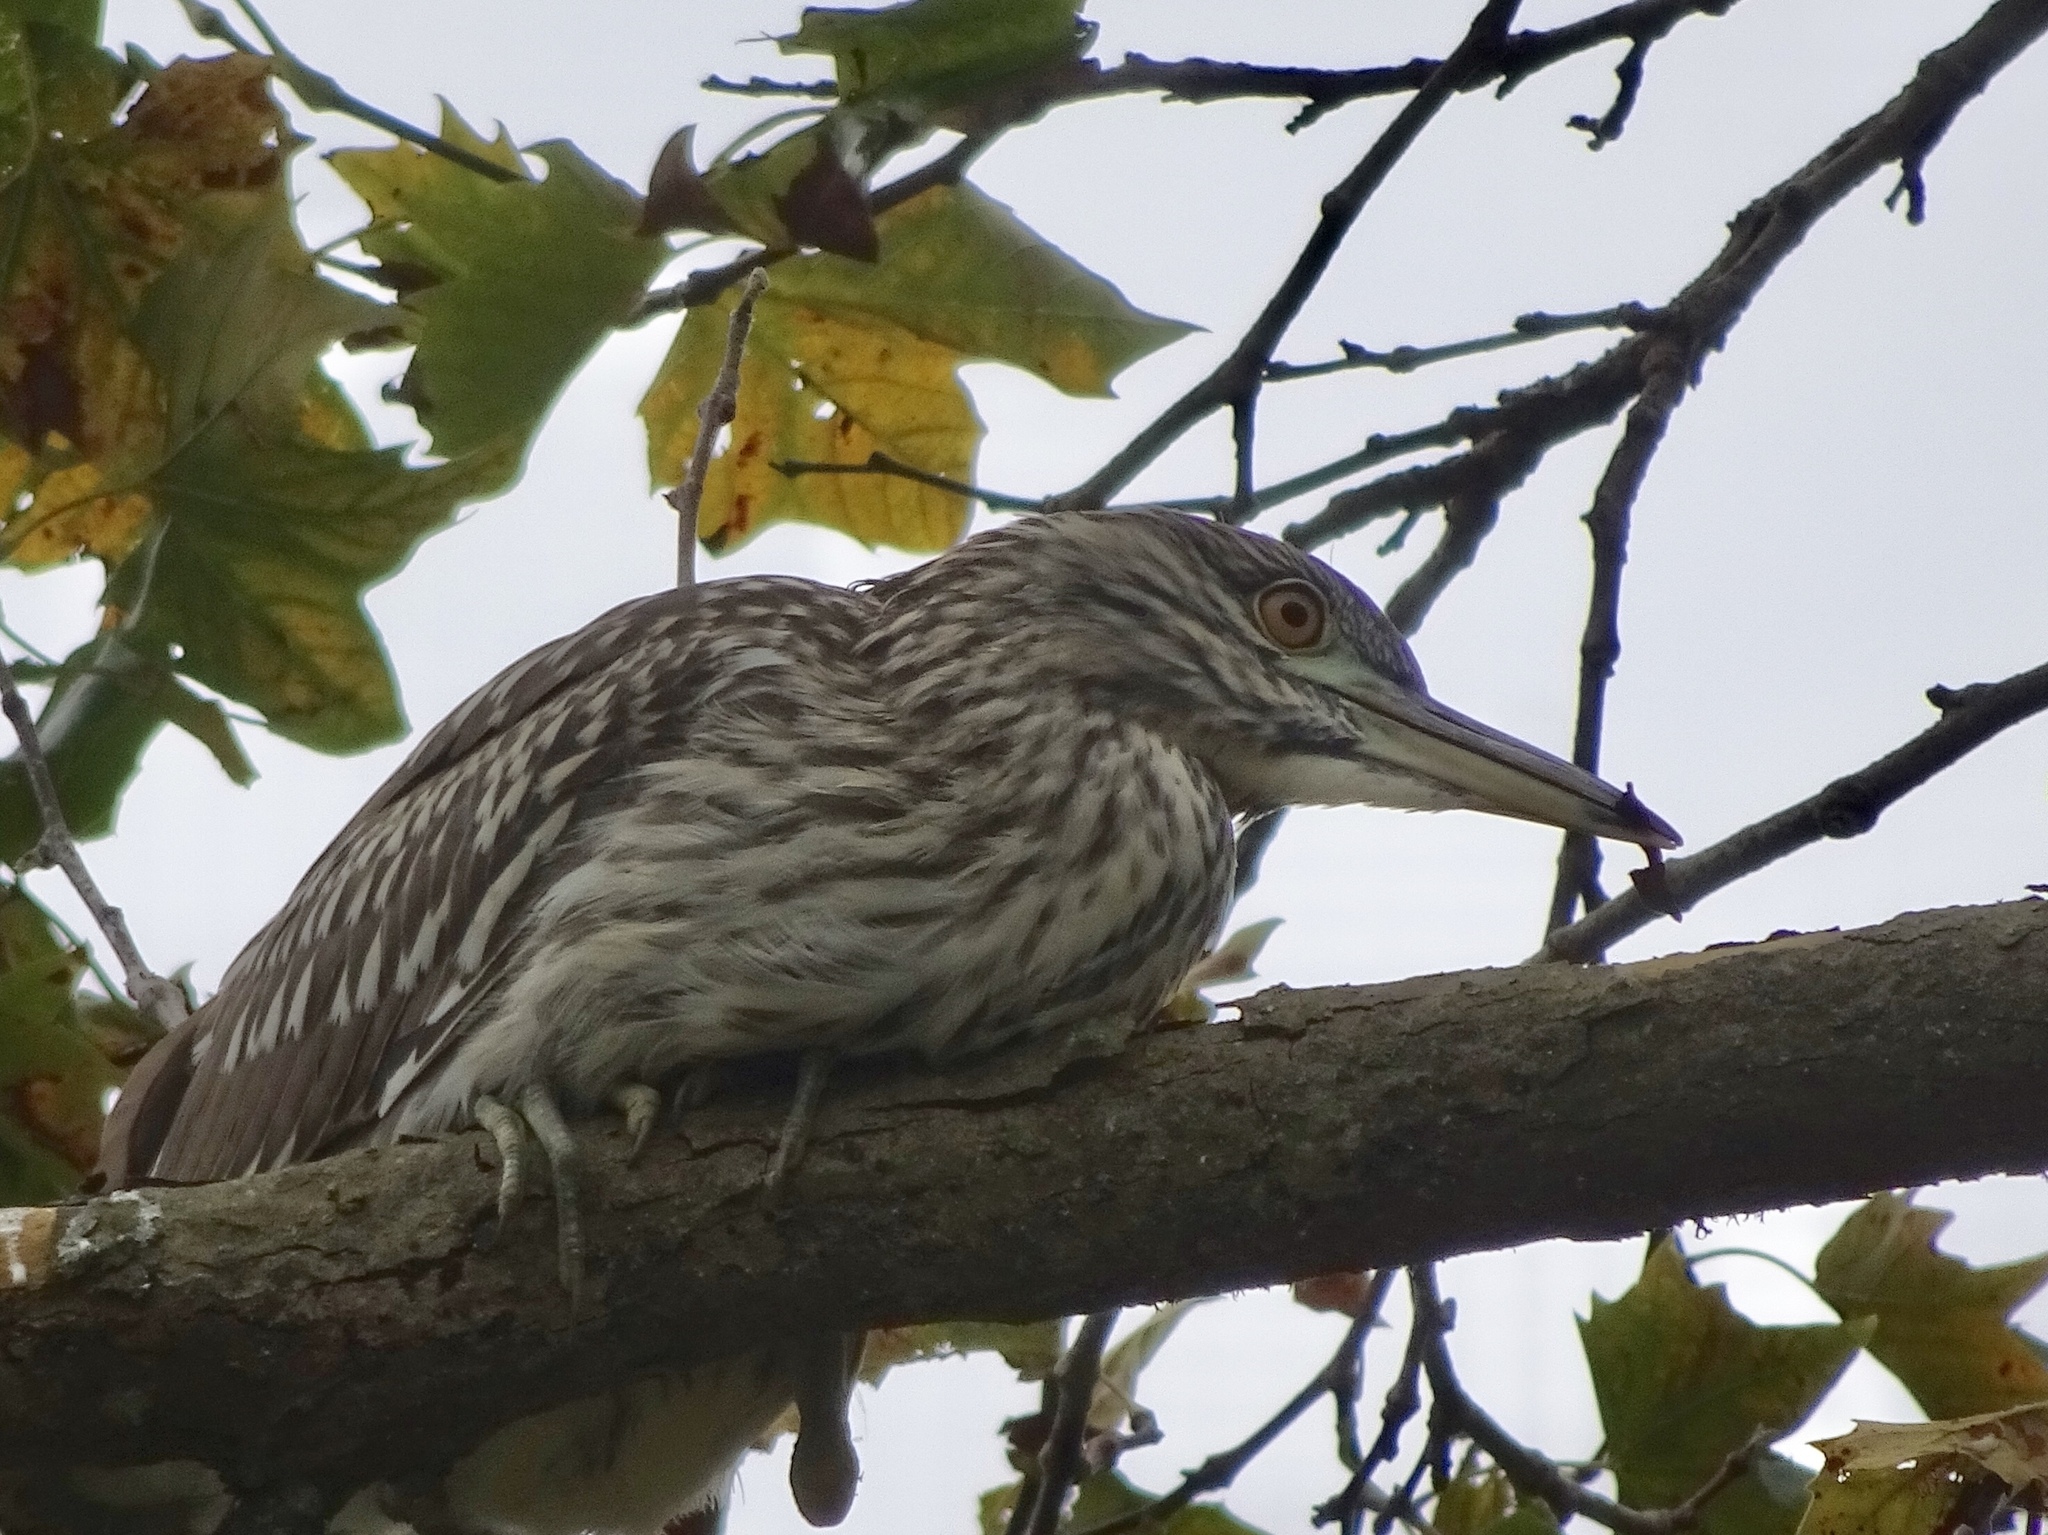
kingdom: Animalia
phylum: Chordata
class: Aves
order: Pelecaniformes
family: Ardeidae
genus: Nycticorax
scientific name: Nycticorax nycticorax
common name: Black-crowned night heron
